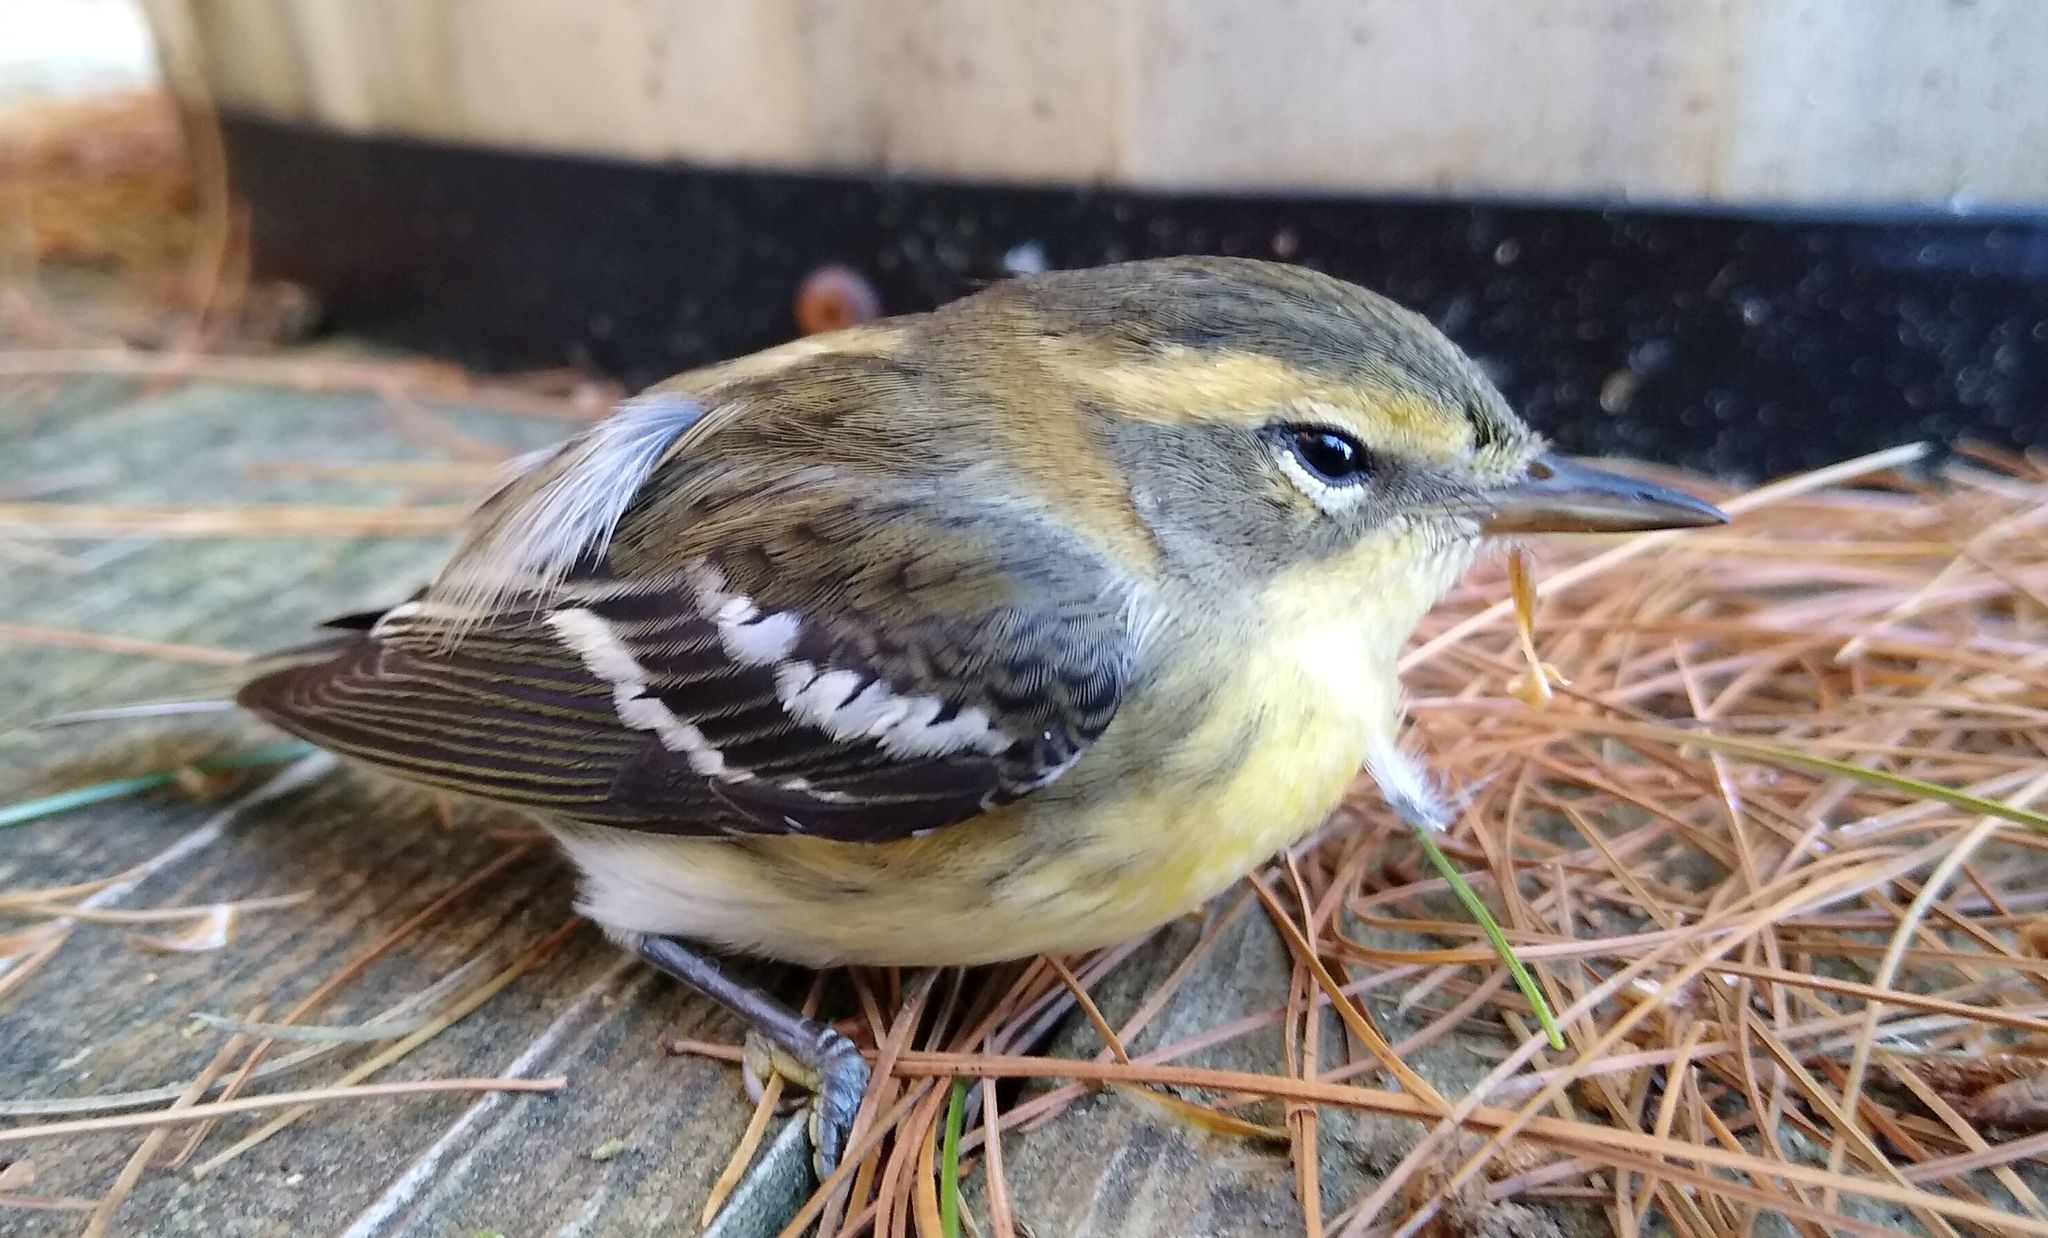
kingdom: Animalia
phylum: Chordata
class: Aves
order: Passeriformes
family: Parulidae
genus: Setophaga
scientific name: Setophaga fusca
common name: Blackburnian warbler
